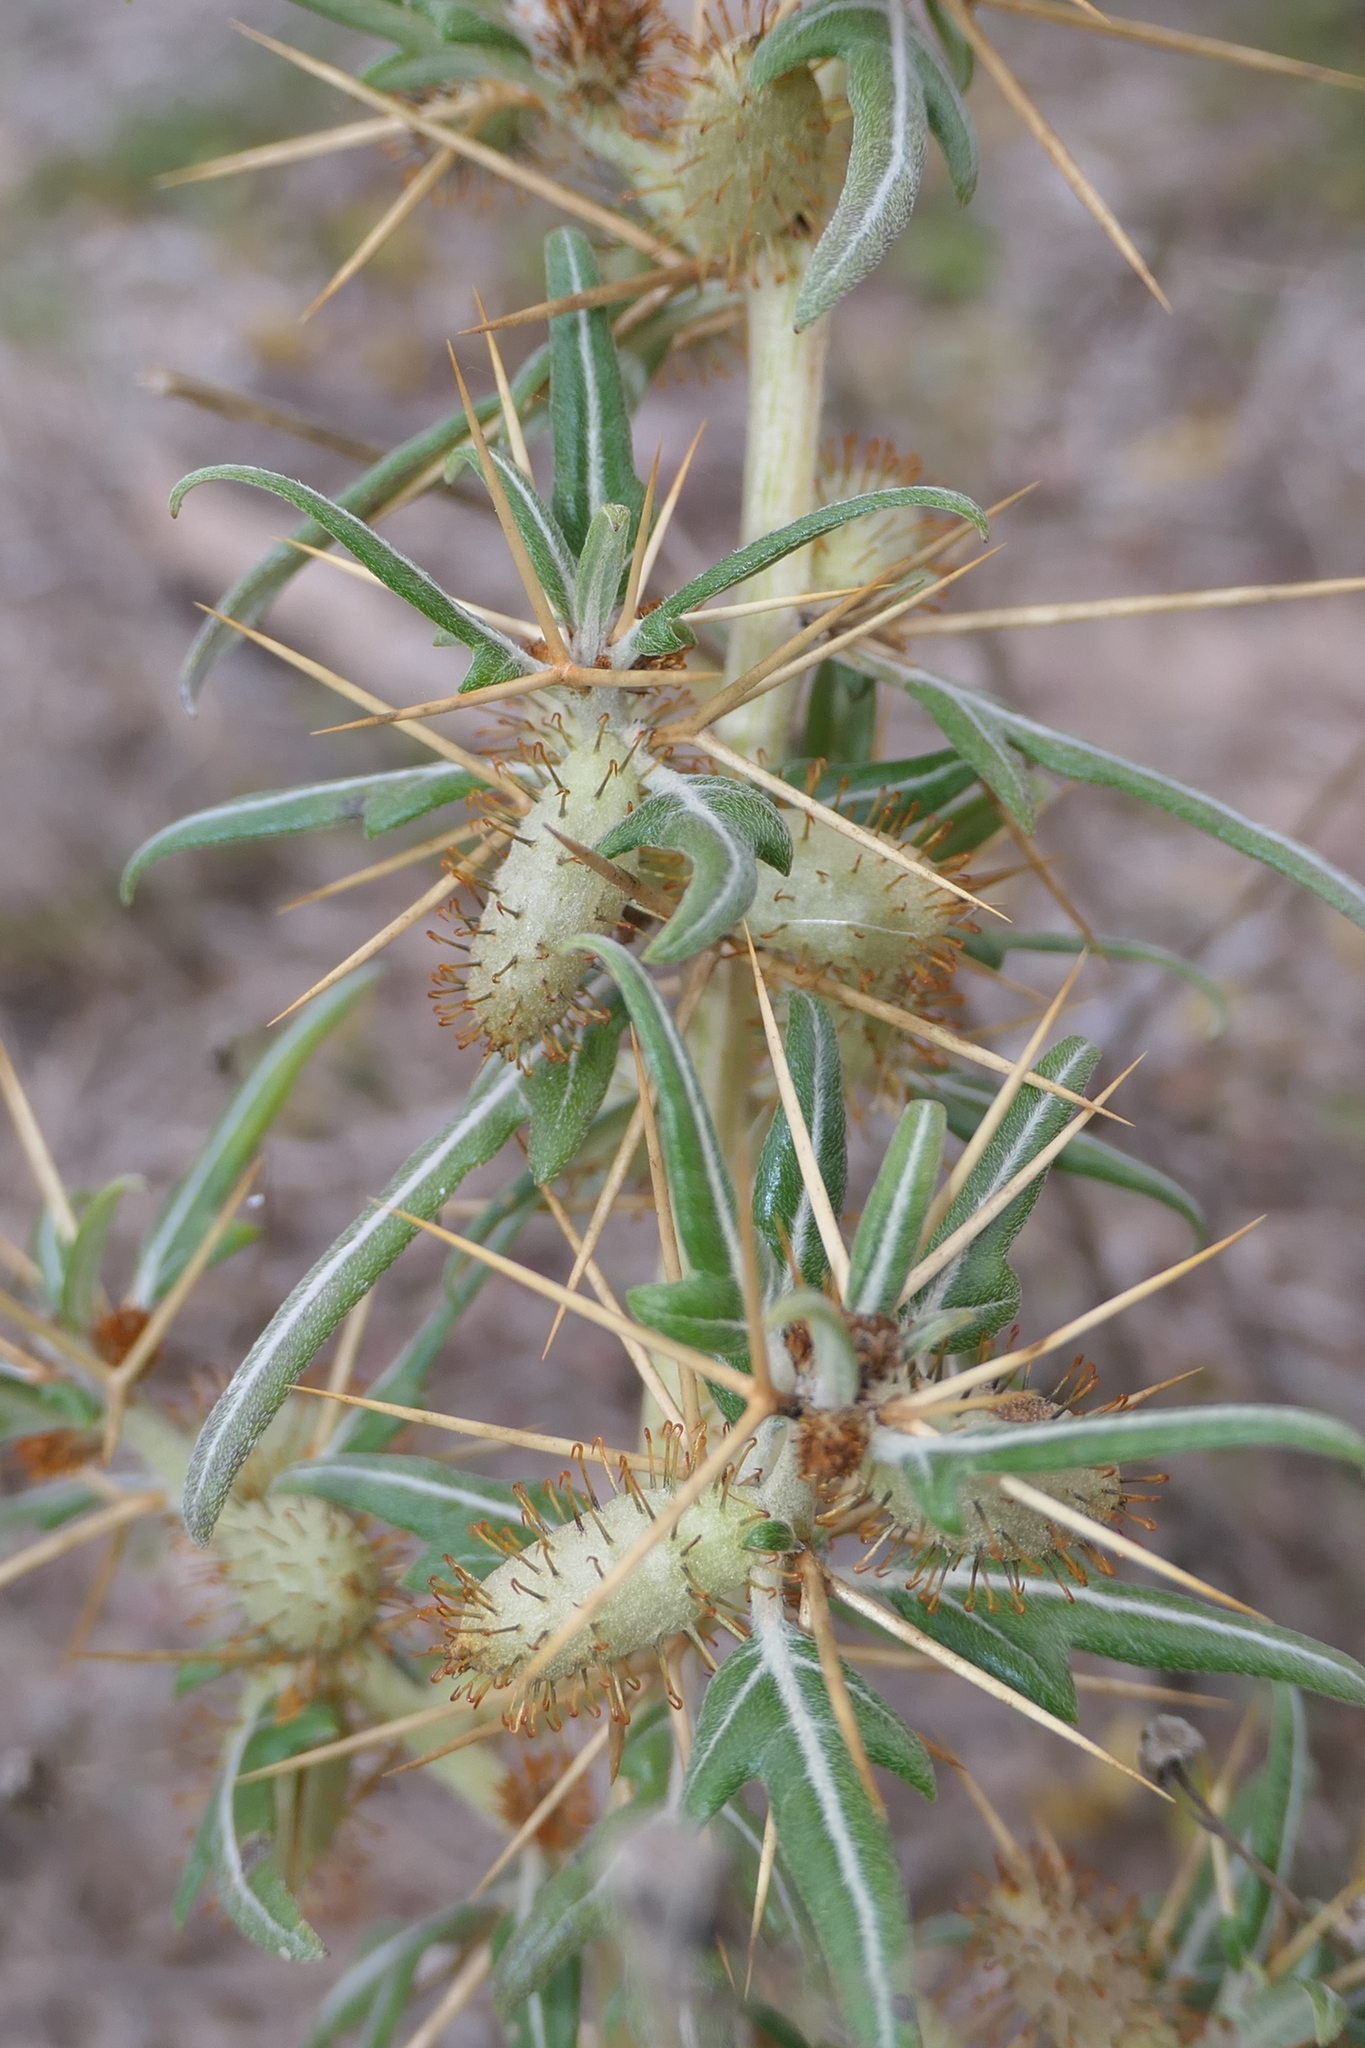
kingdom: Plantae
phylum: Tracheophyta
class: Magnoliopsida
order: Asterales
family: Asteraceae
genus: Xanthium
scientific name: Xanthium spinosum
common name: Spiny cocklebur
